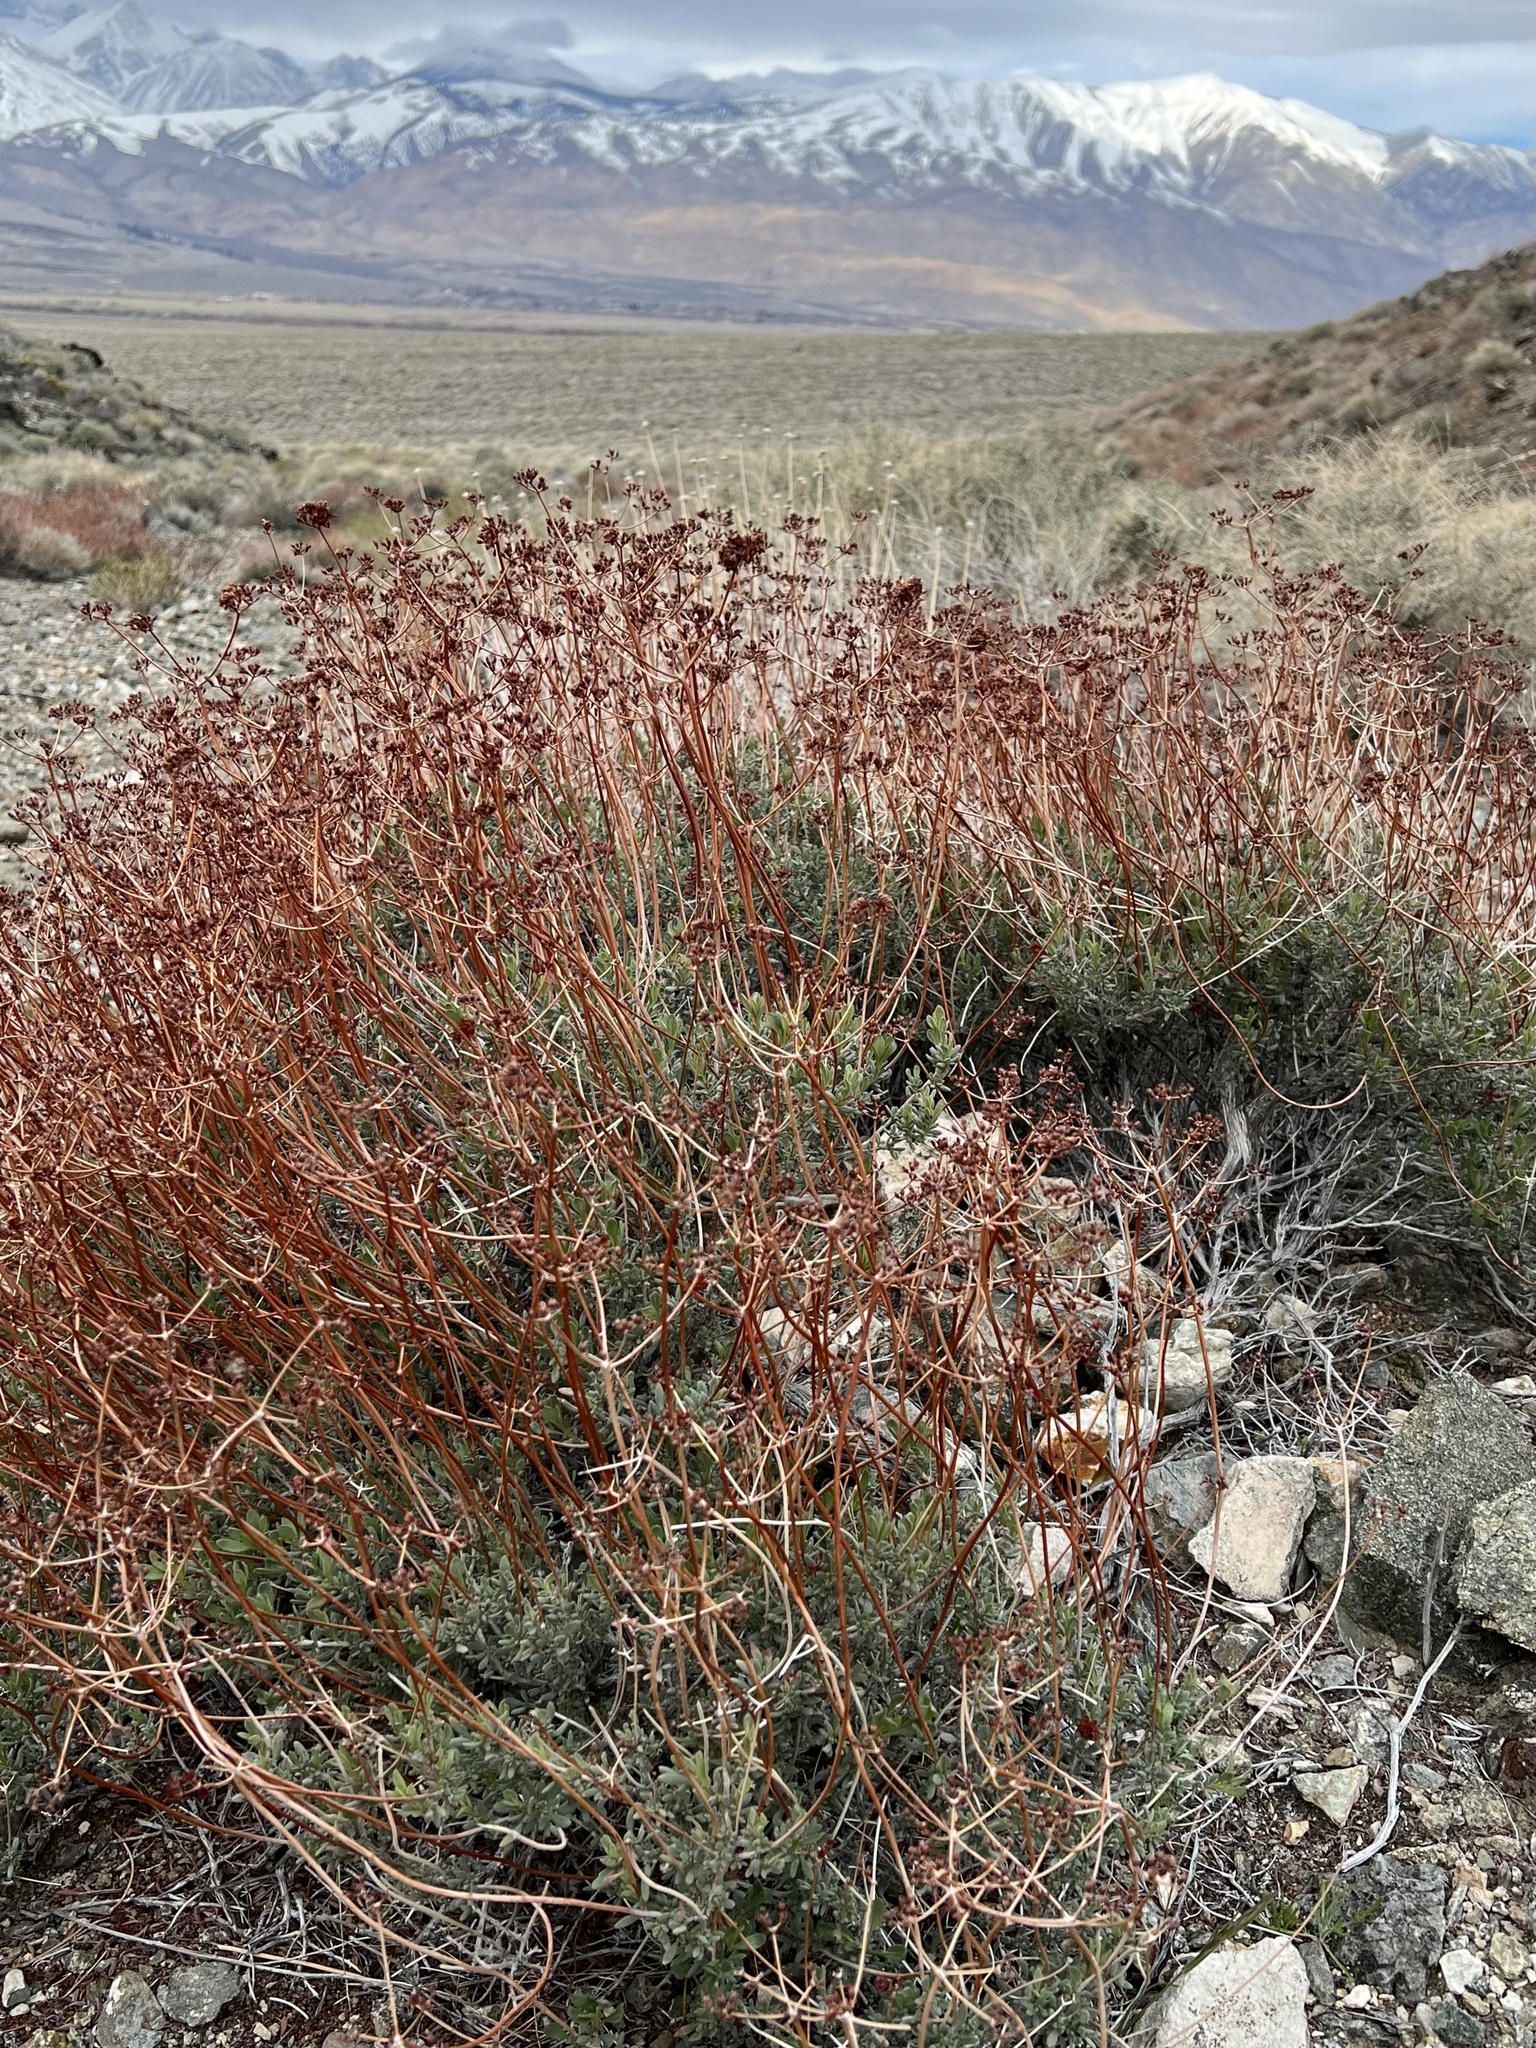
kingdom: Plantae
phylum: Tracheophyta
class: Magnoliopsida
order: Caryophyllales
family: Polygonaceae
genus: Eriogonum
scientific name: Eriogonum fasciculatum
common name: California wild buckwheat
